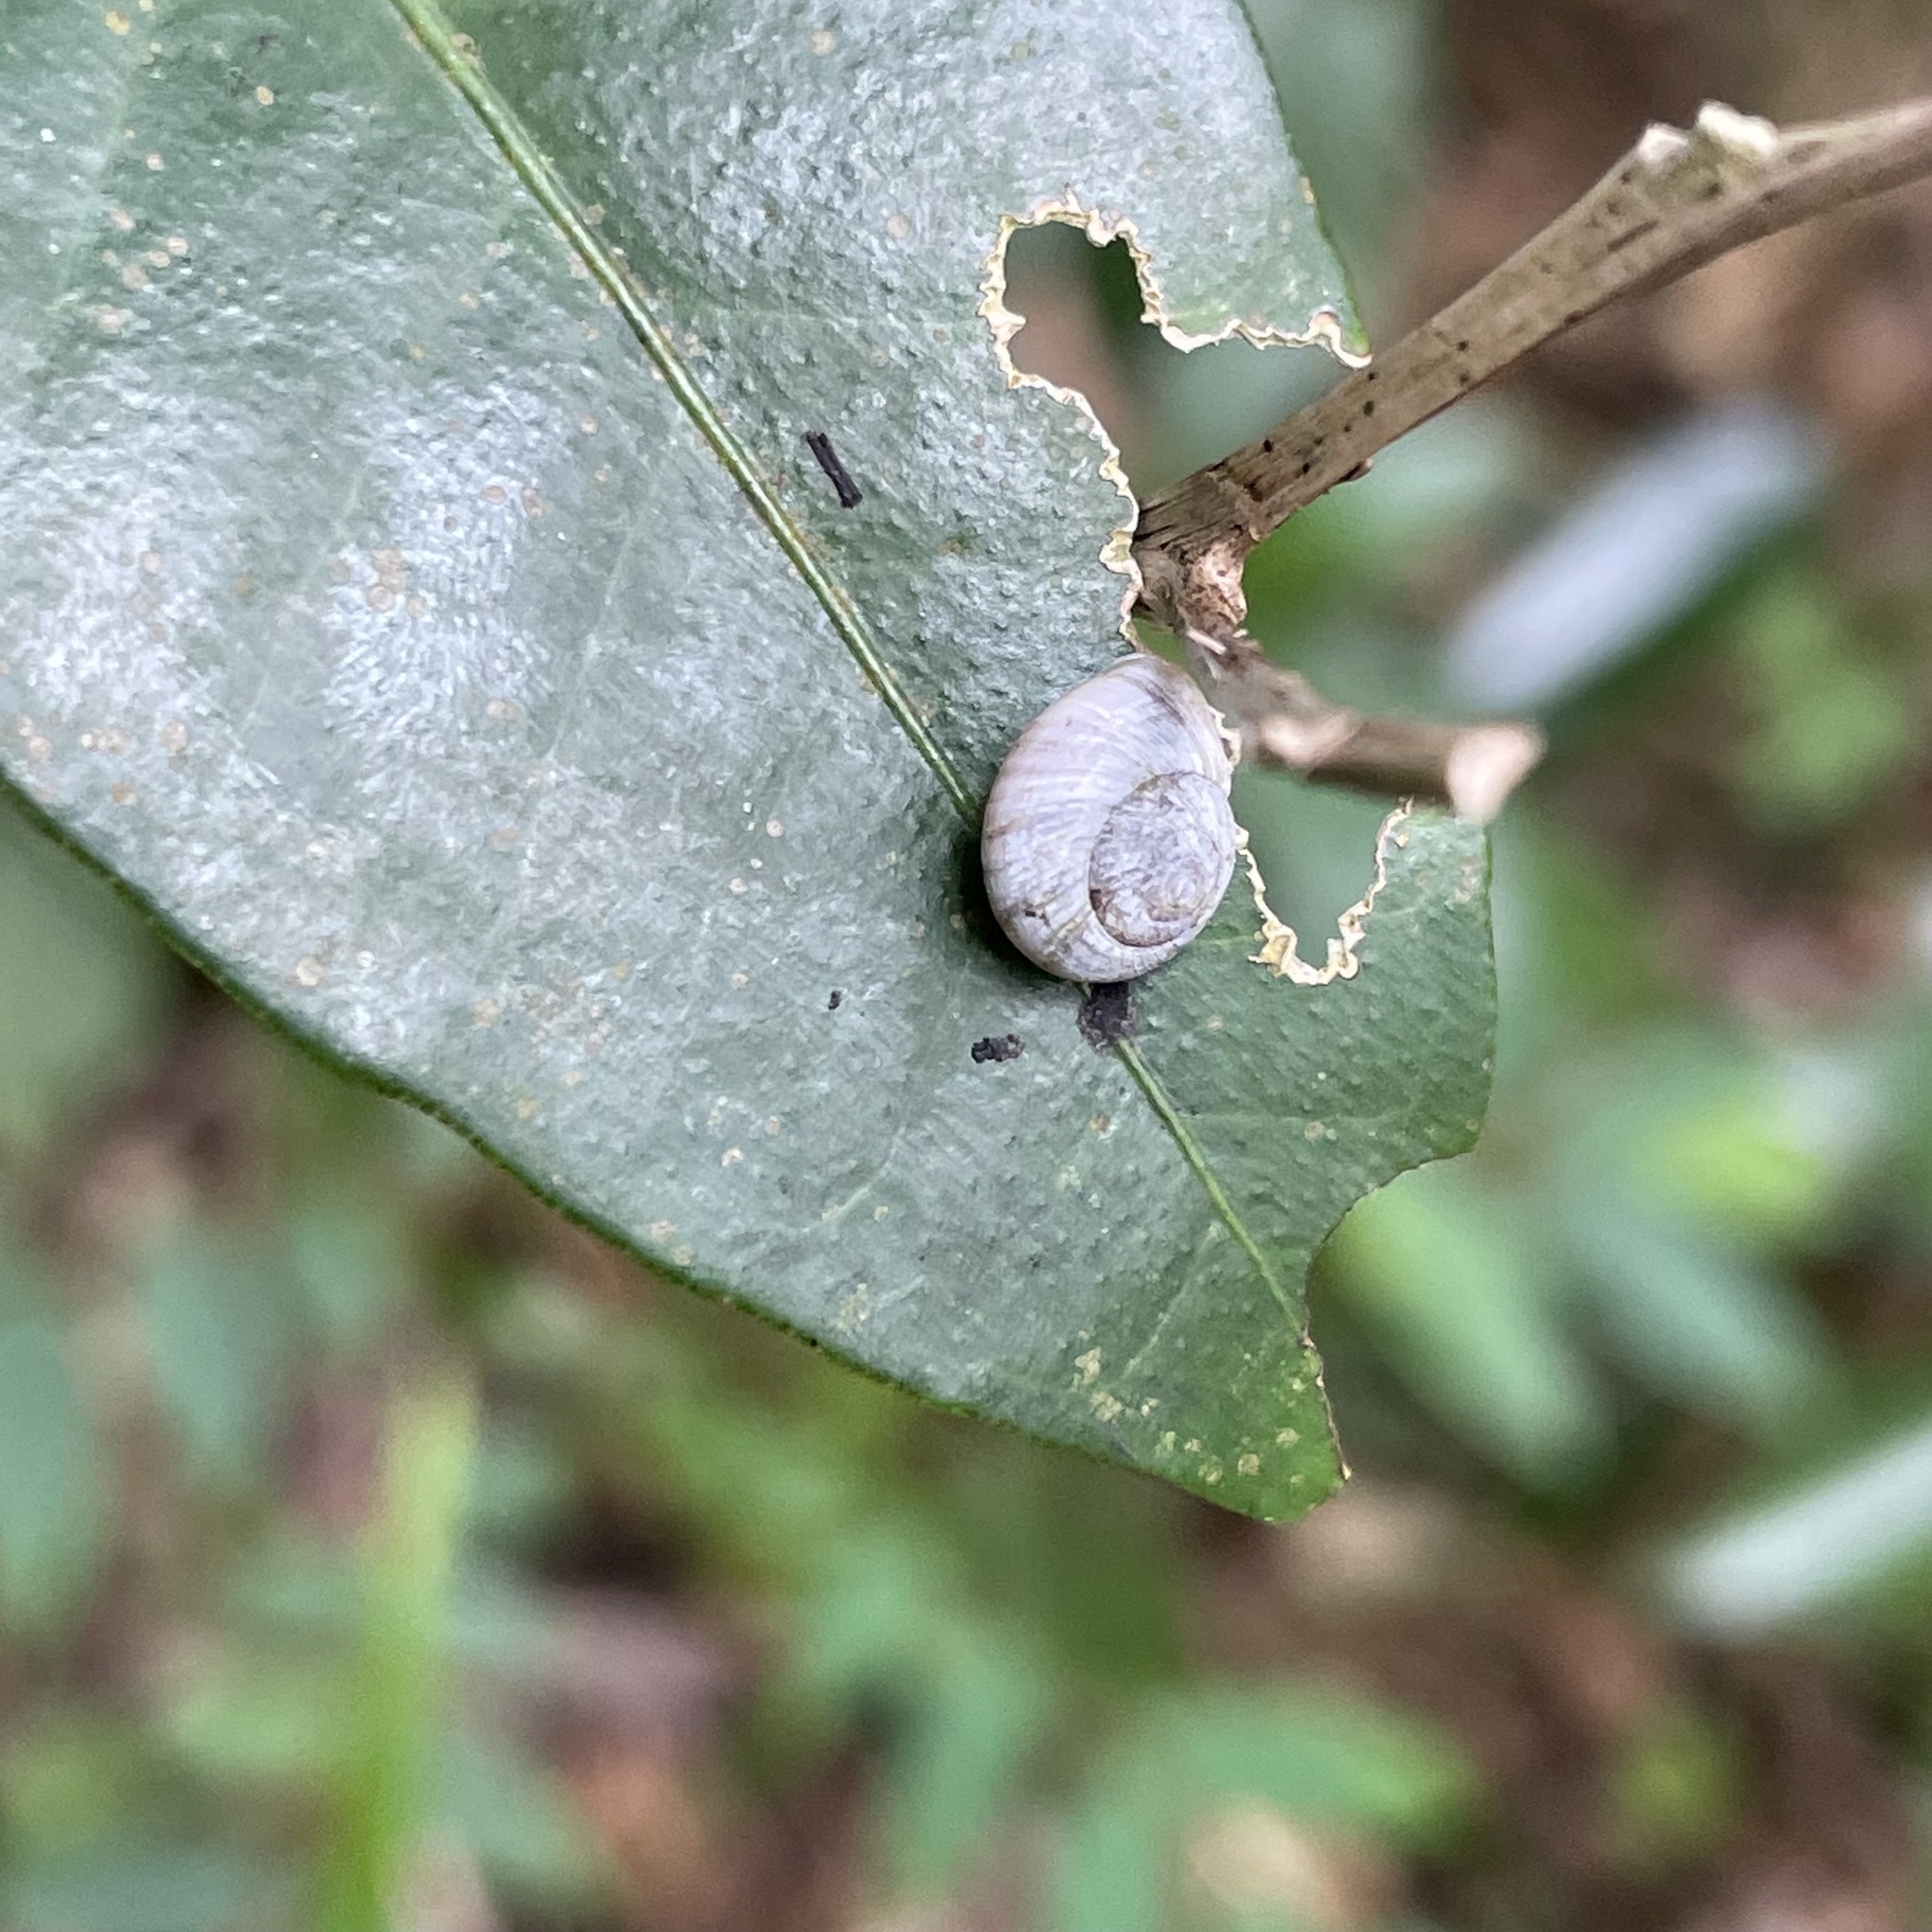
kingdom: Animalia
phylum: Mollusca
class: Gastropoda
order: Cycloneritida
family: Helicinidae
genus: Aphanoconia
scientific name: Aphanoconia verecunda
